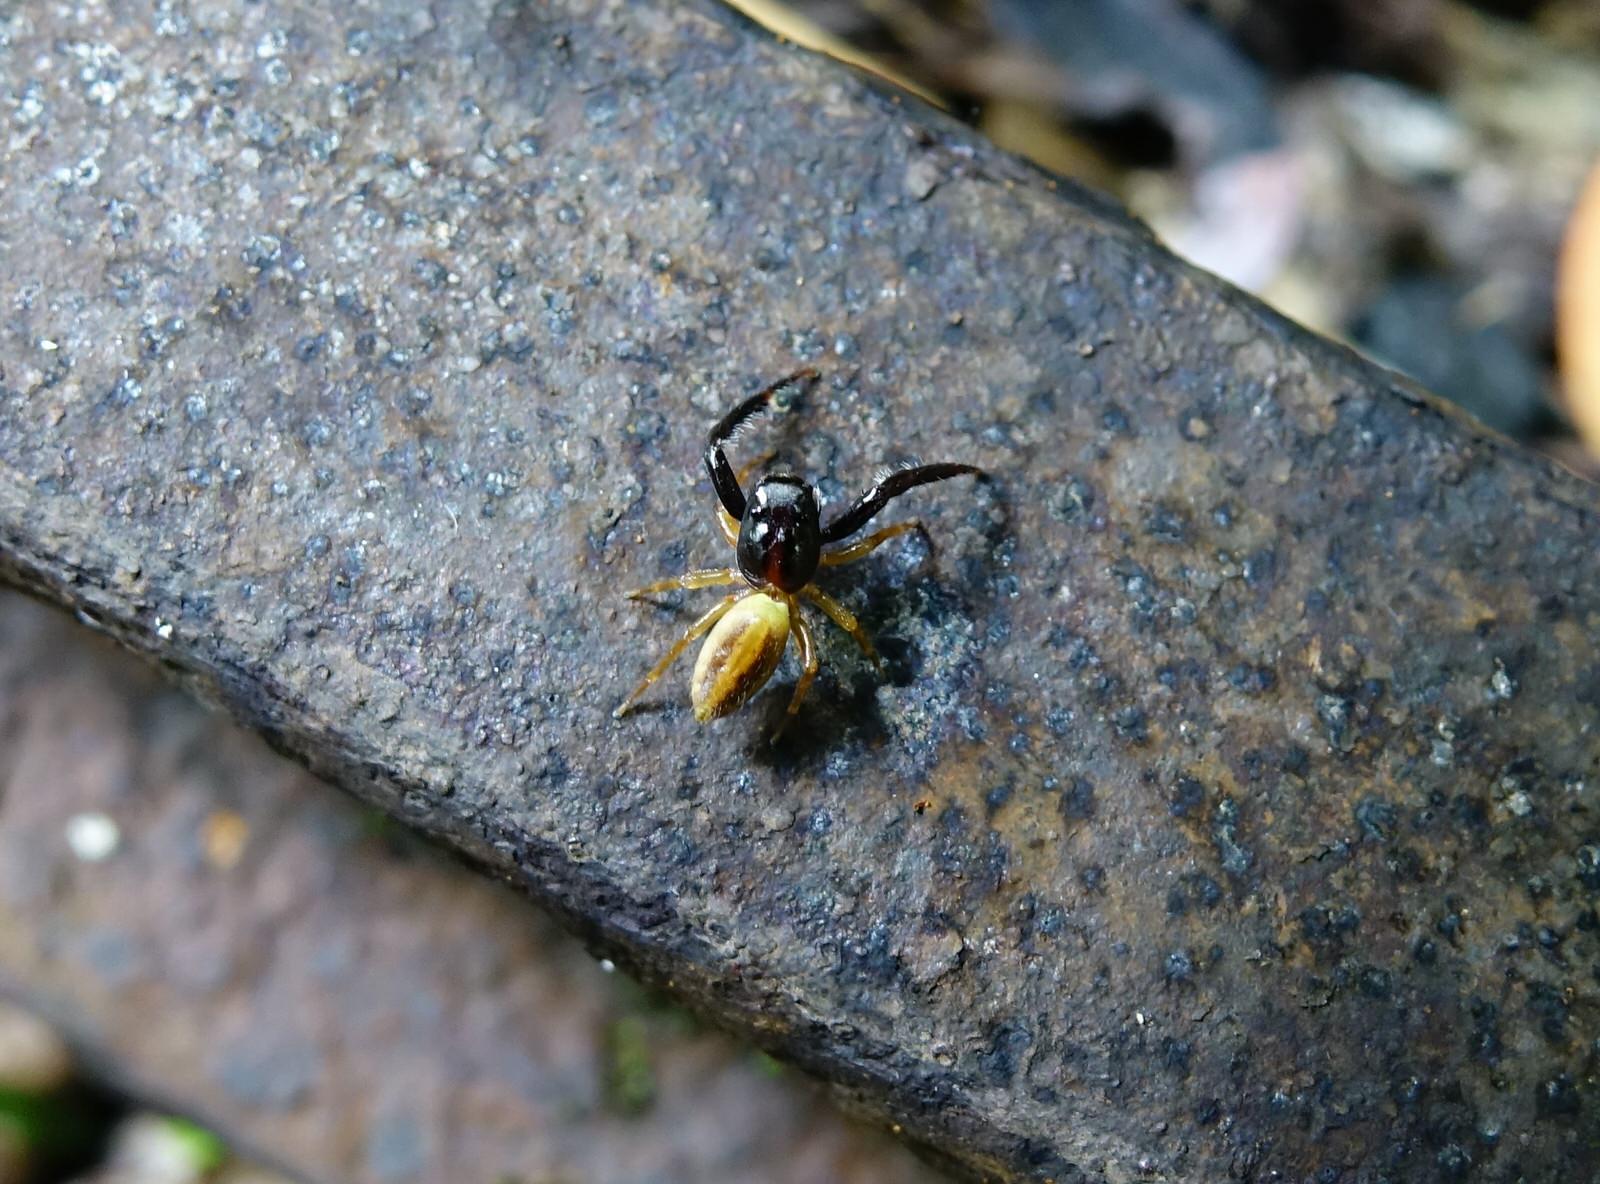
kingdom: Animalia
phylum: Arthropoda
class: Arachnida
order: Araneae
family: Salticidae
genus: Trite
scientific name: Trite planiceps
